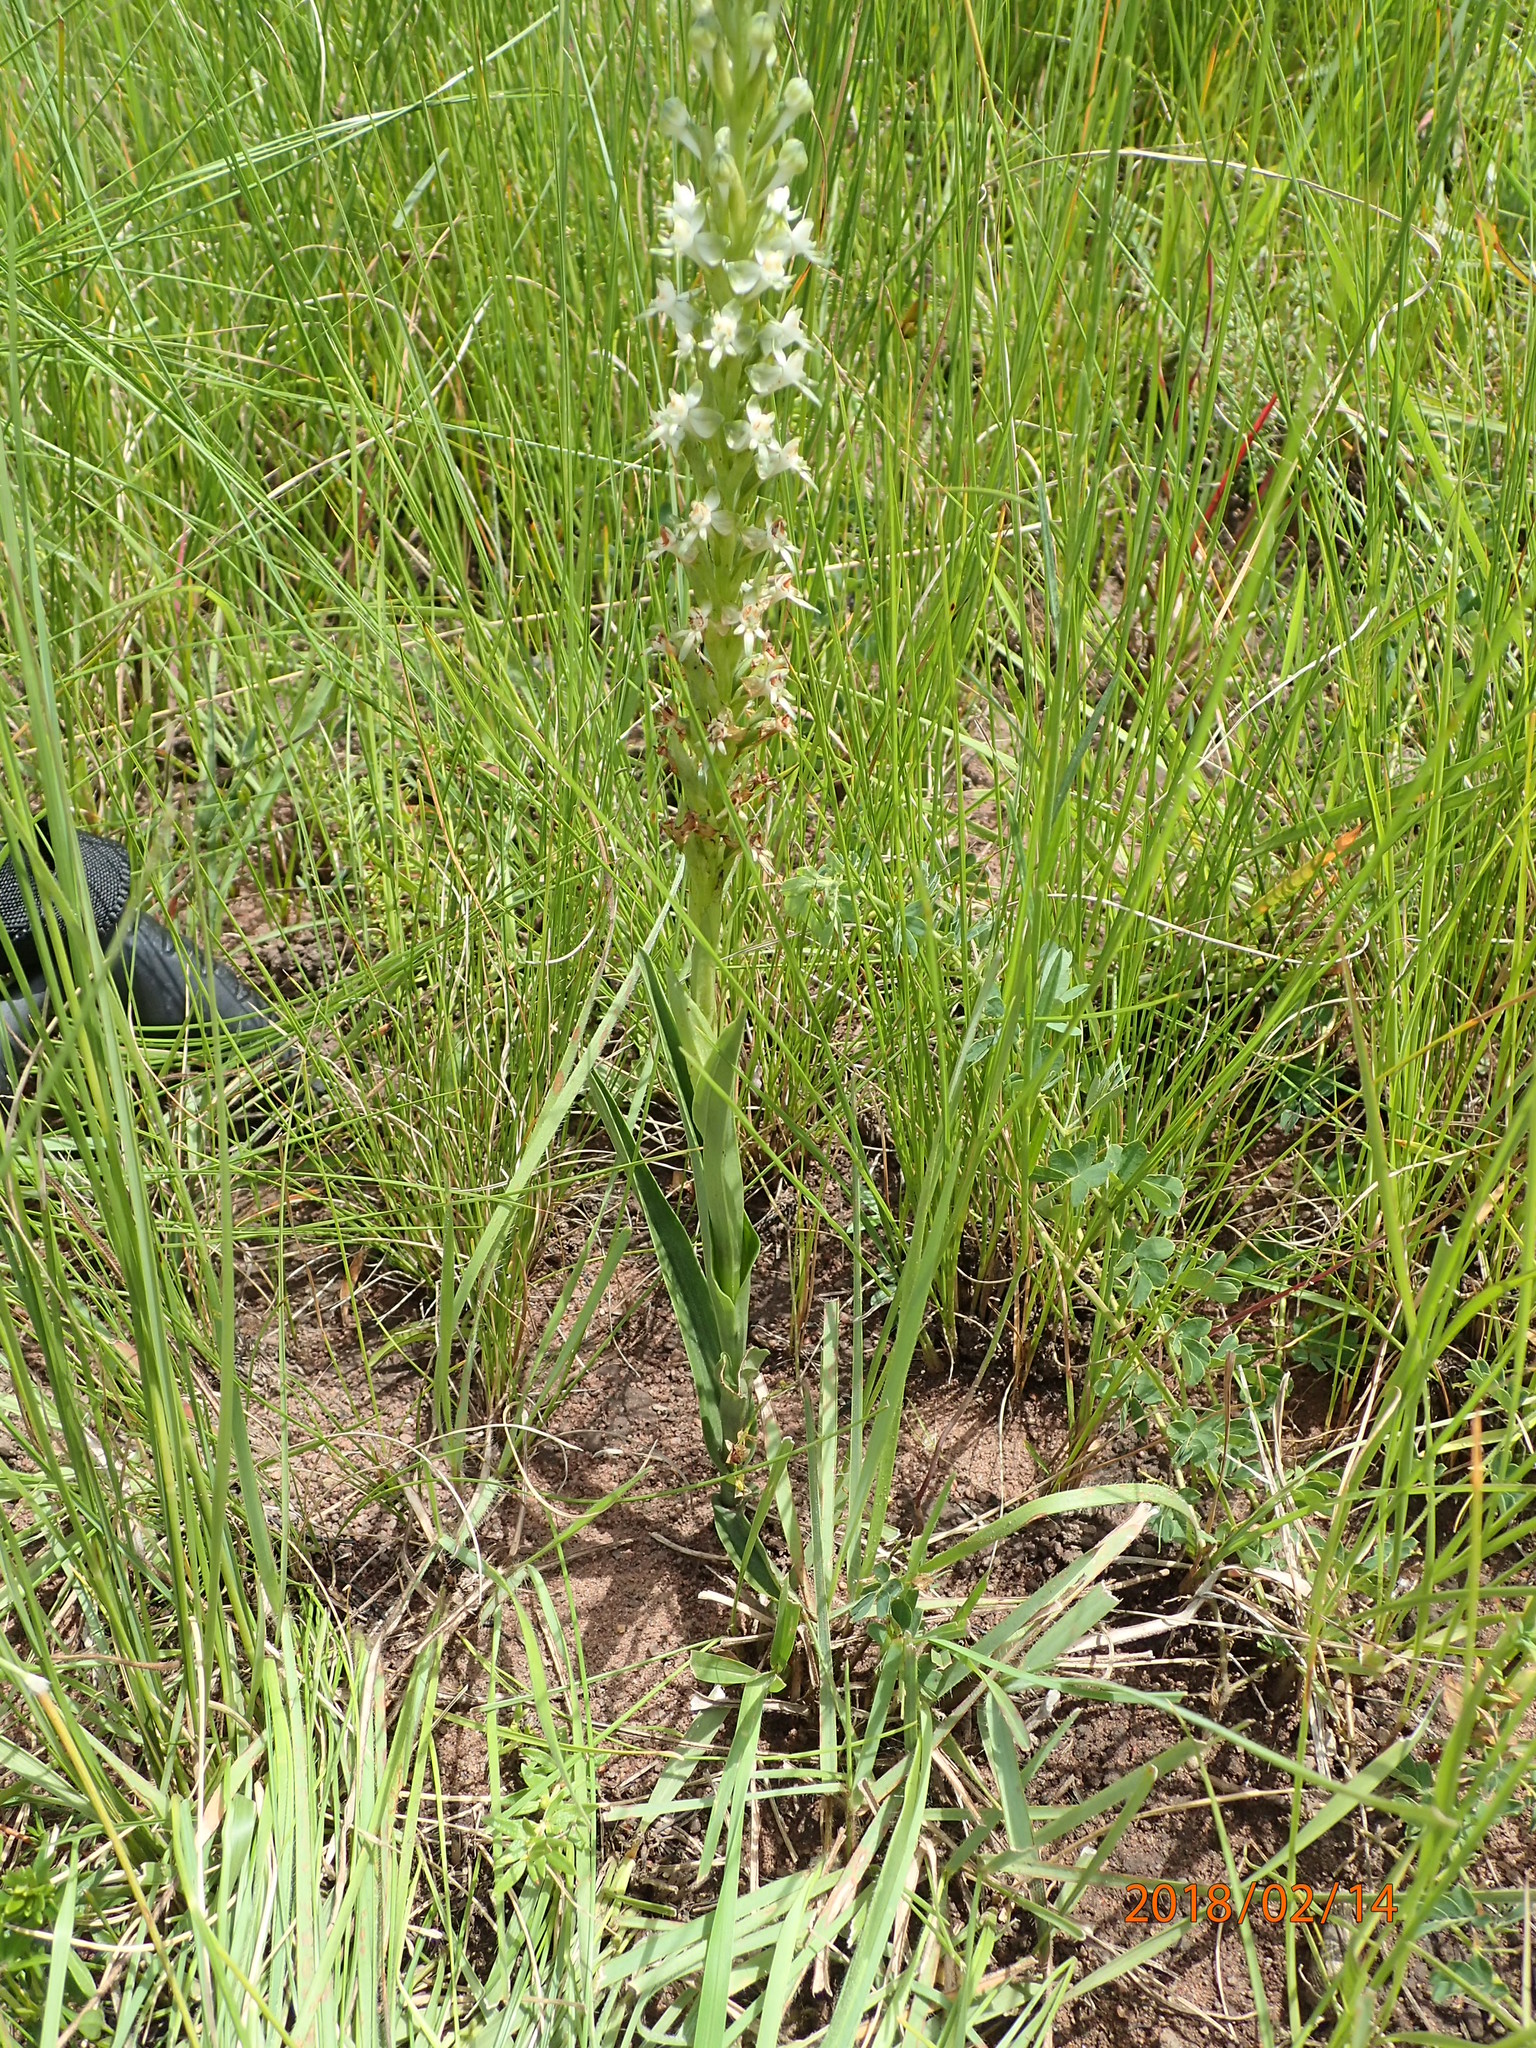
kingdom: Plantae
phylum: Tracheophyta
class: Liliopsida
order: Asparagales
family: Orchidaceae
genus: Habenaria
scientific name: Habenaria dives
